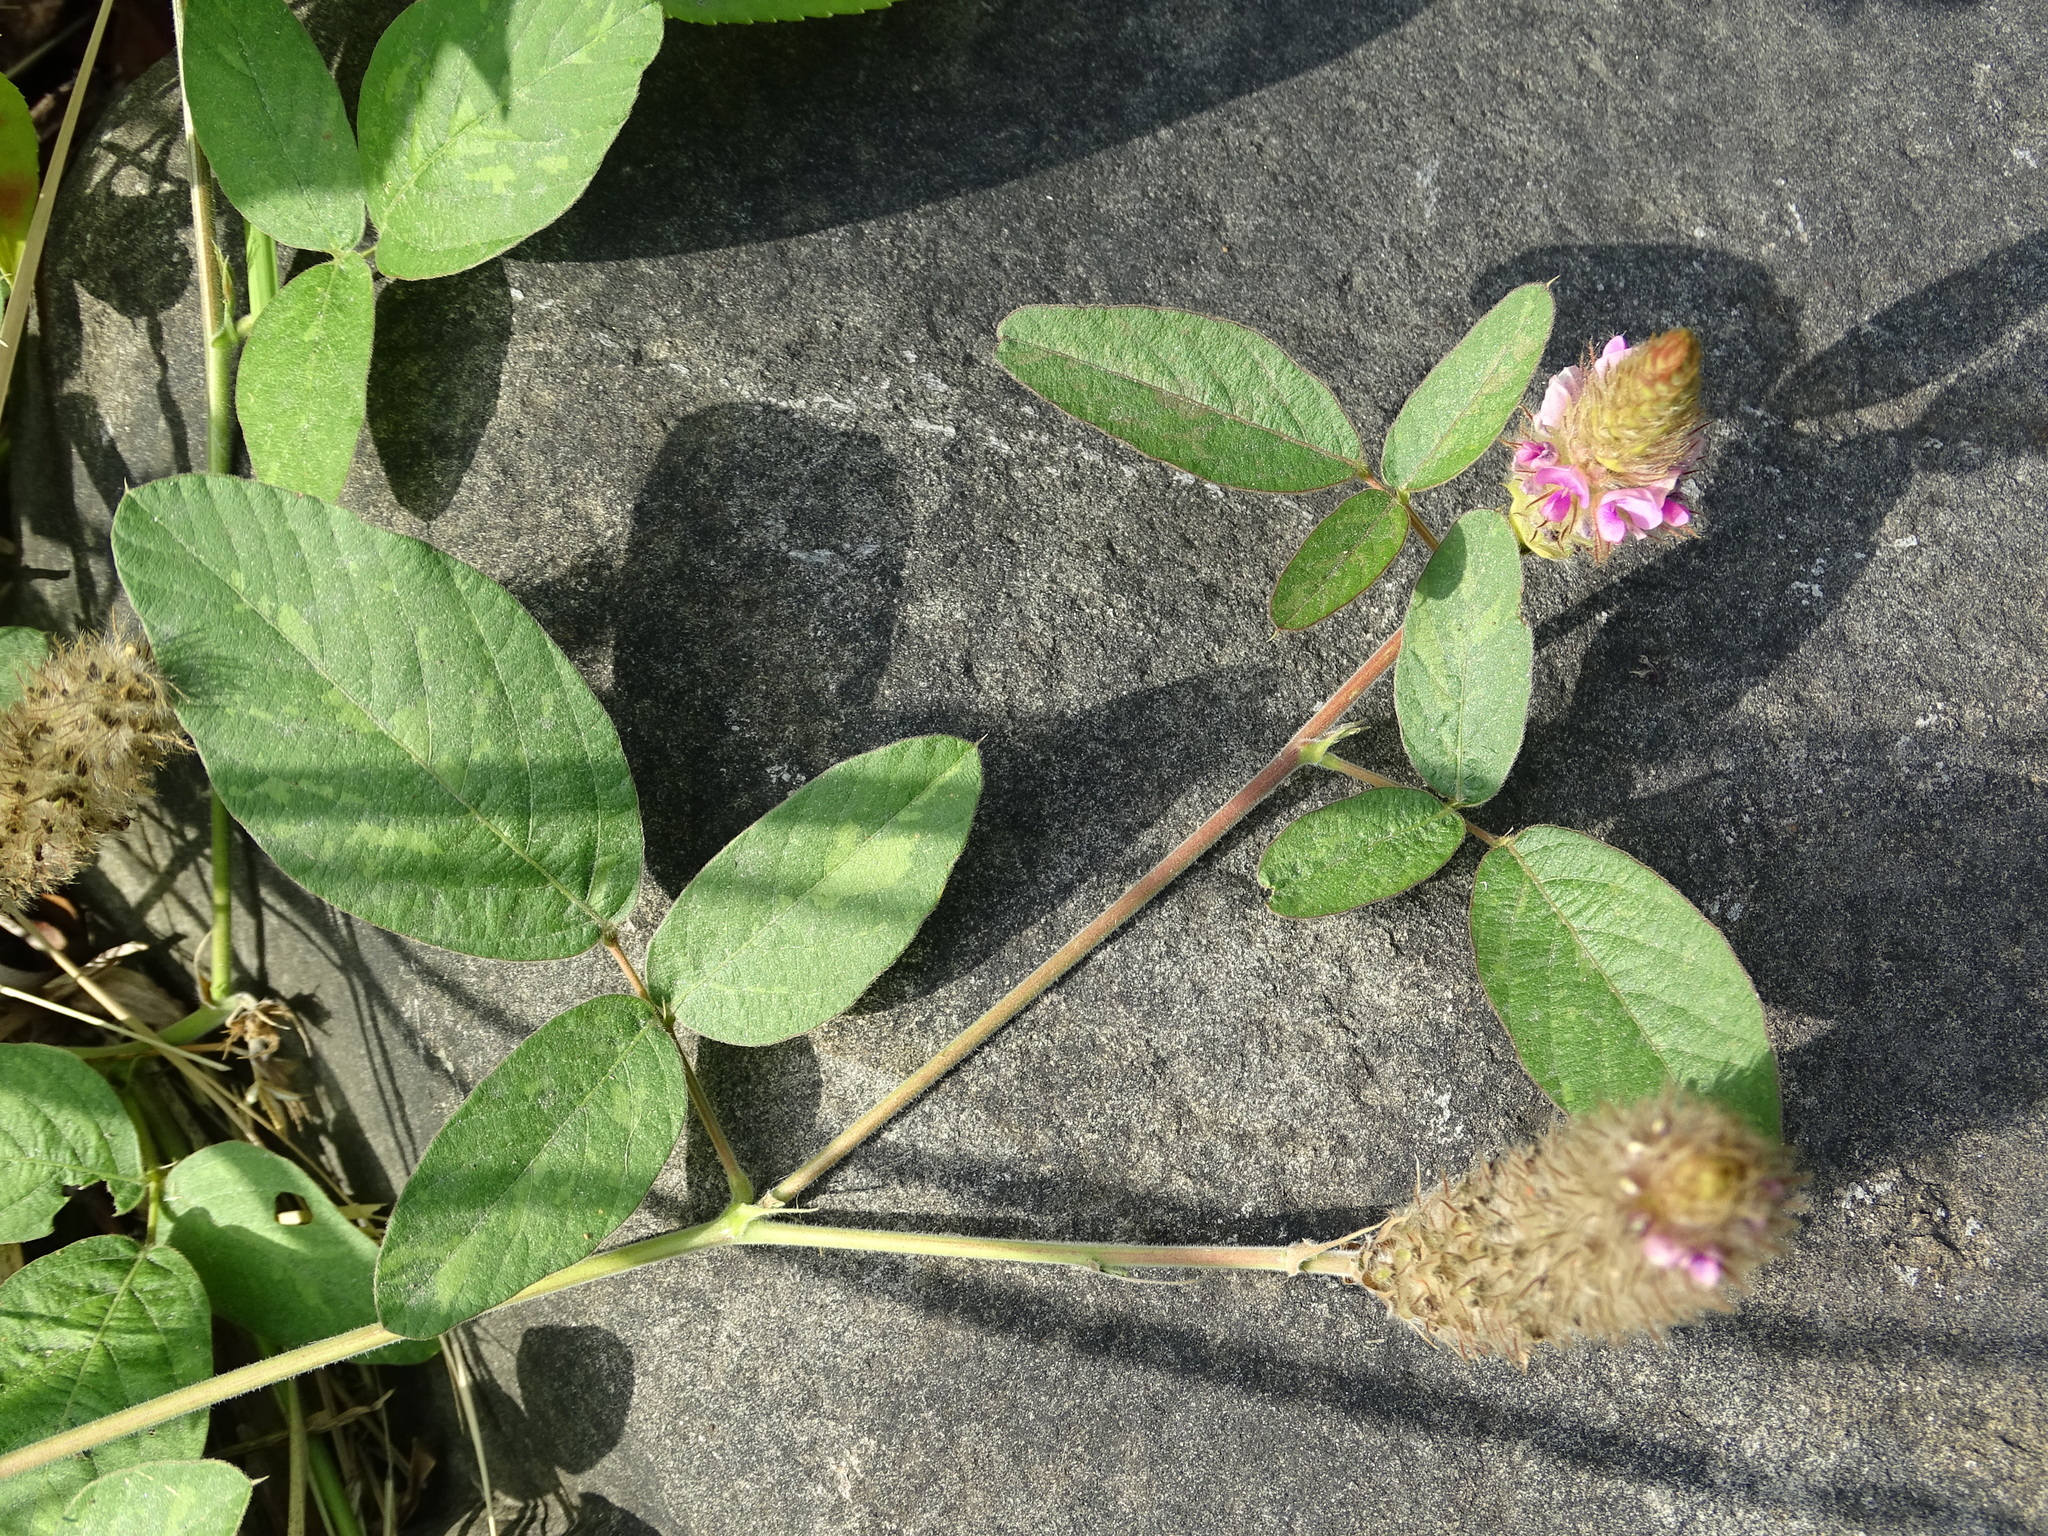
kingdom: Plantae
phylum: Tracheophyta
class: Magnoliopsida
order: Fabales
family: Fabaceae
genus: Uraria
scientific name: Uraria lagopodioides
